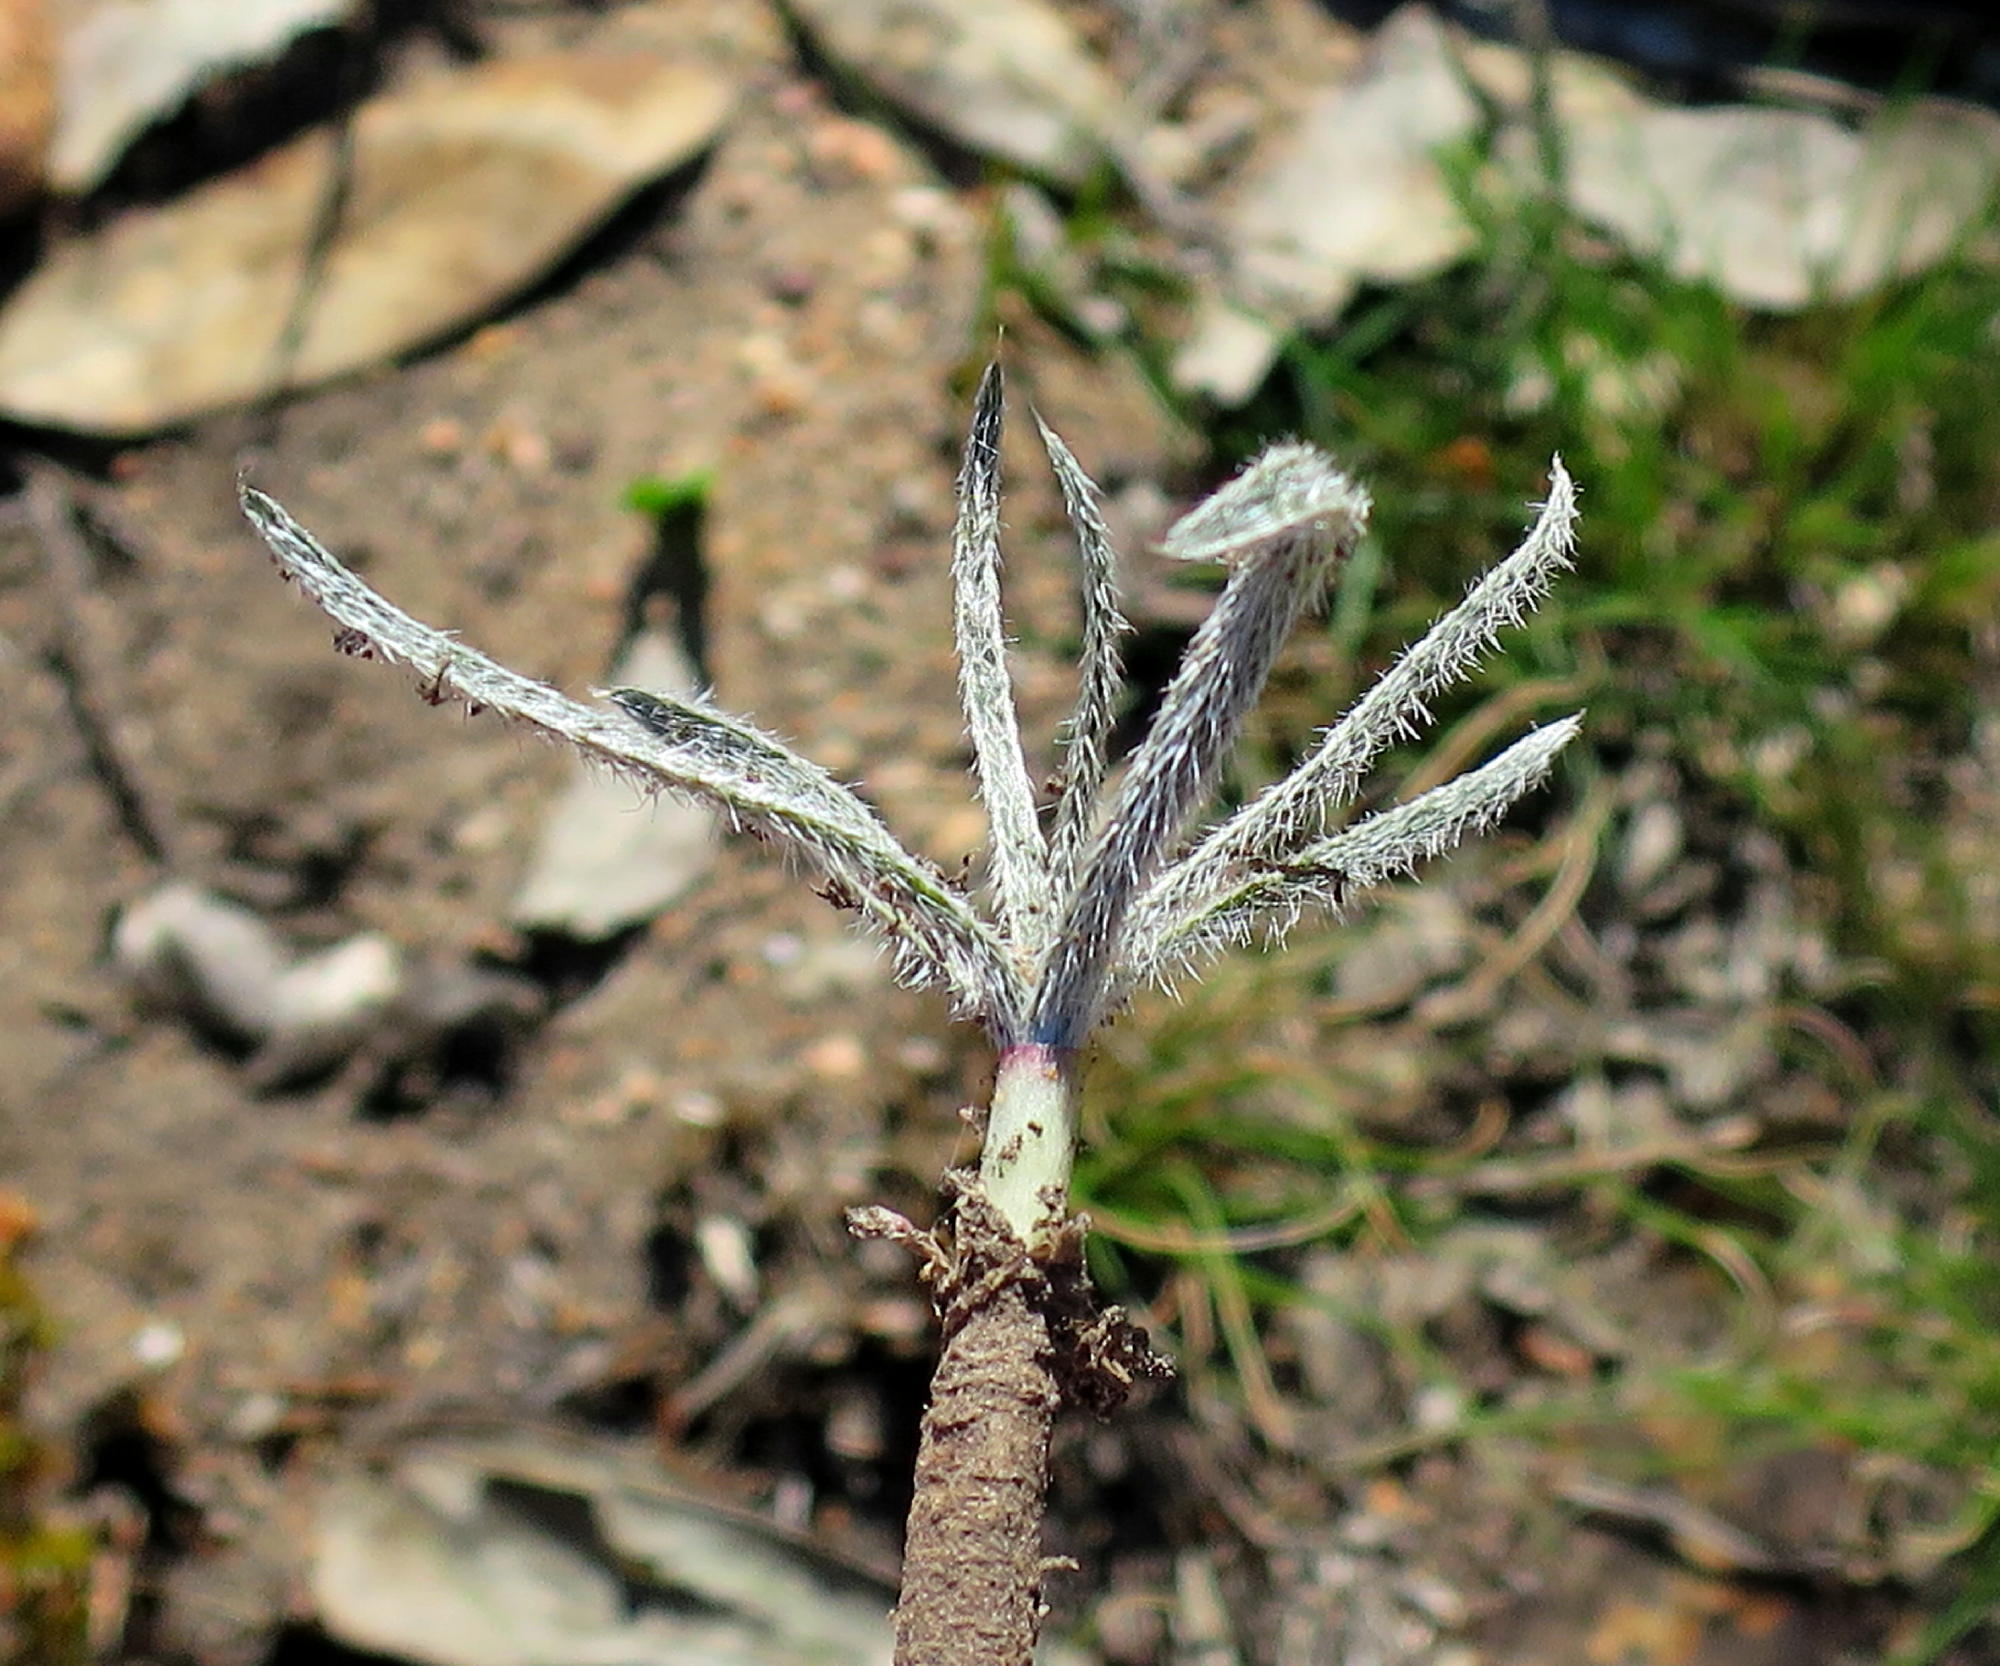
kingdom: Plantae
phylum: Tracheophyta
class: Liliopsida
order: Asparagales
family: Amaryllidaceae
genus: Gethyllis
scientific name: Gethyllis villosa
